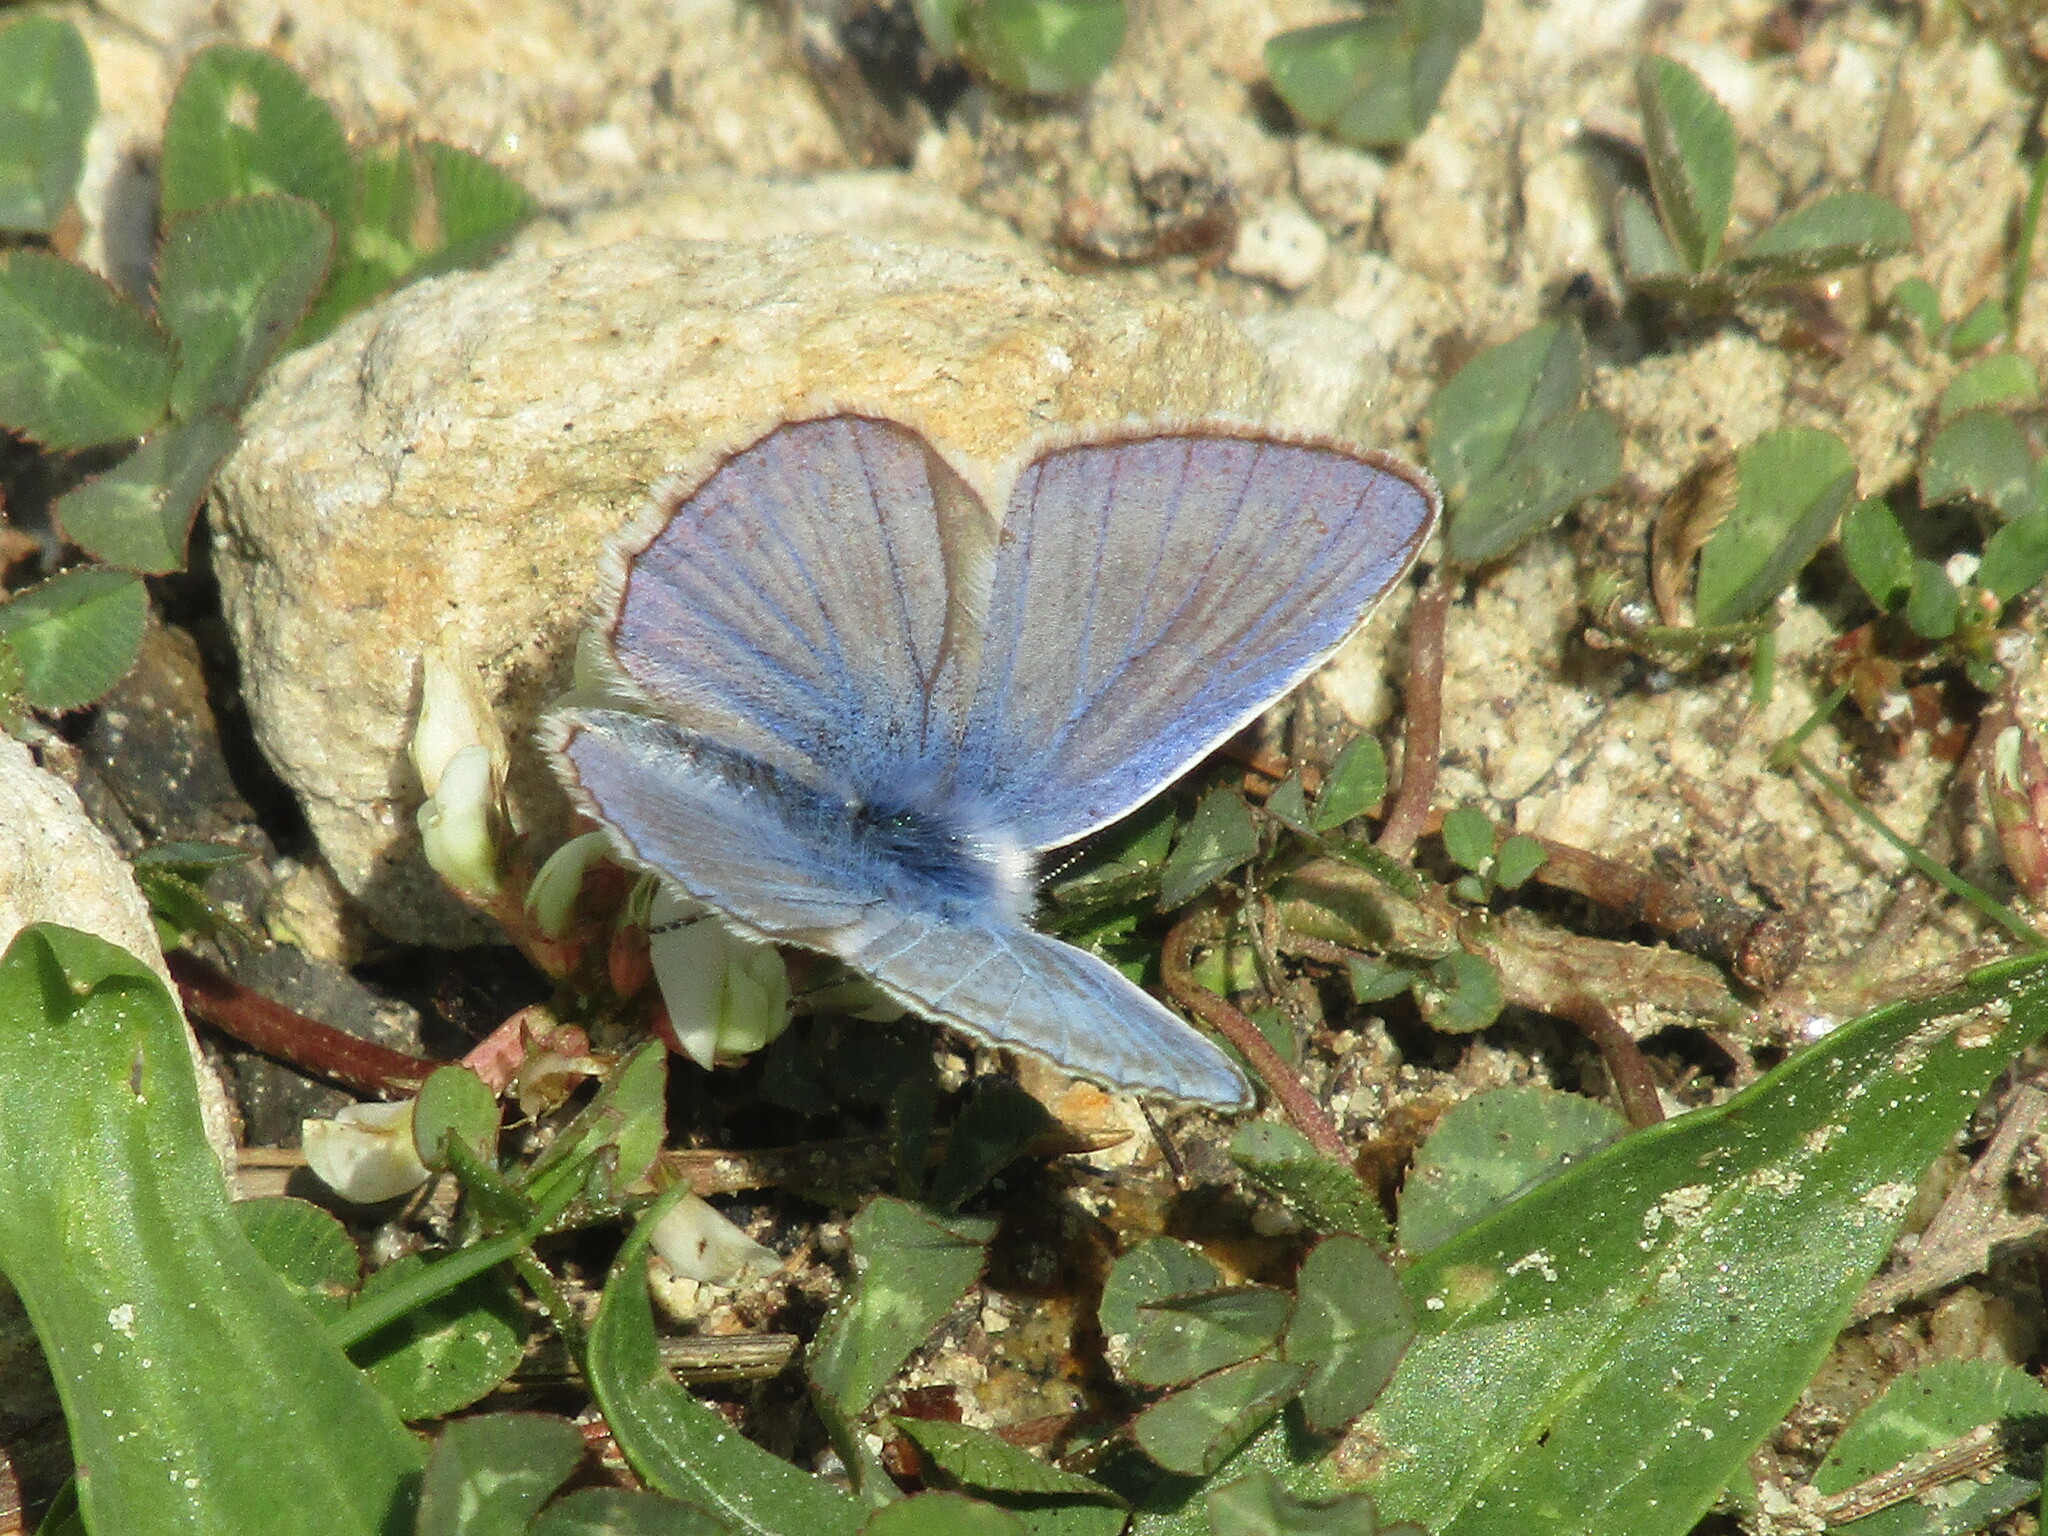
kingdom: Animalia
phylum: Arthropoda
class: Insecta
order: Lepidoptera
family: Lycaenidae
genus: Polyommatus
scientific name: Polyommatus icarus
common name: Common blue
